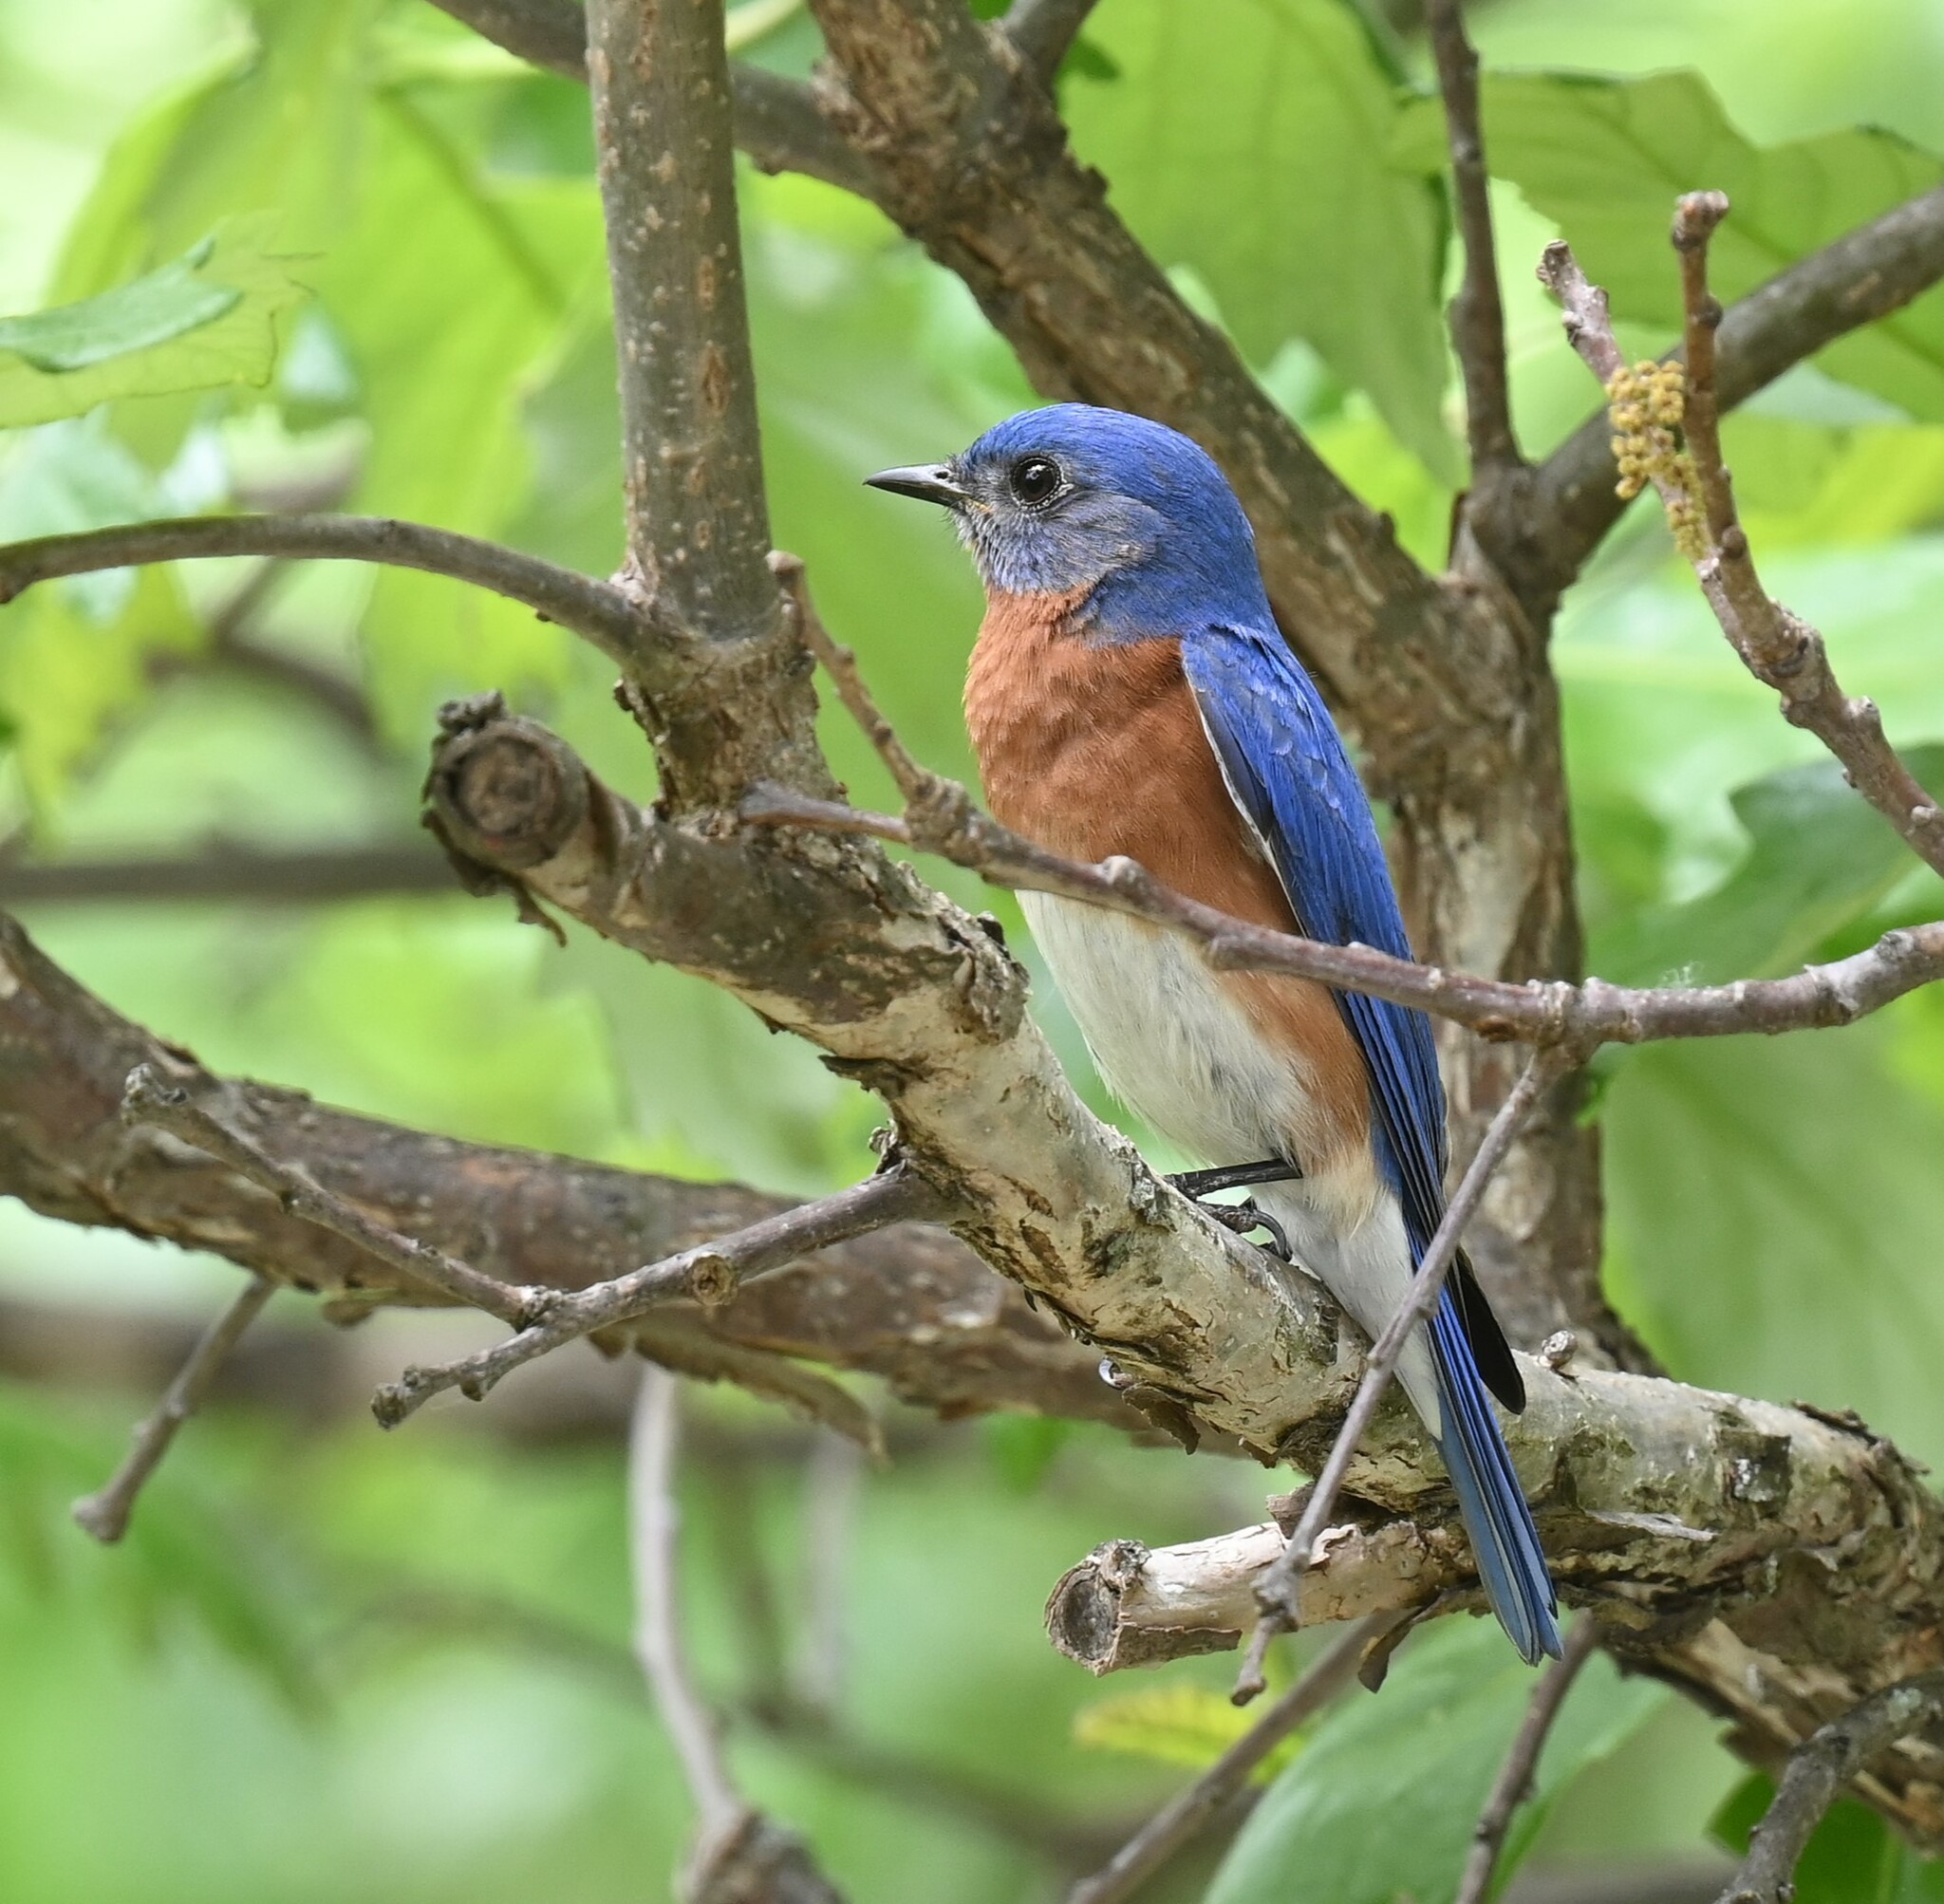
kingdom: Animalia
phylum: Chordata
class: Aves
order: Passeriformes
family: Turdidae
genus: Sialia
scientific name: Sialia sialis
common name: Eastern bluebird
